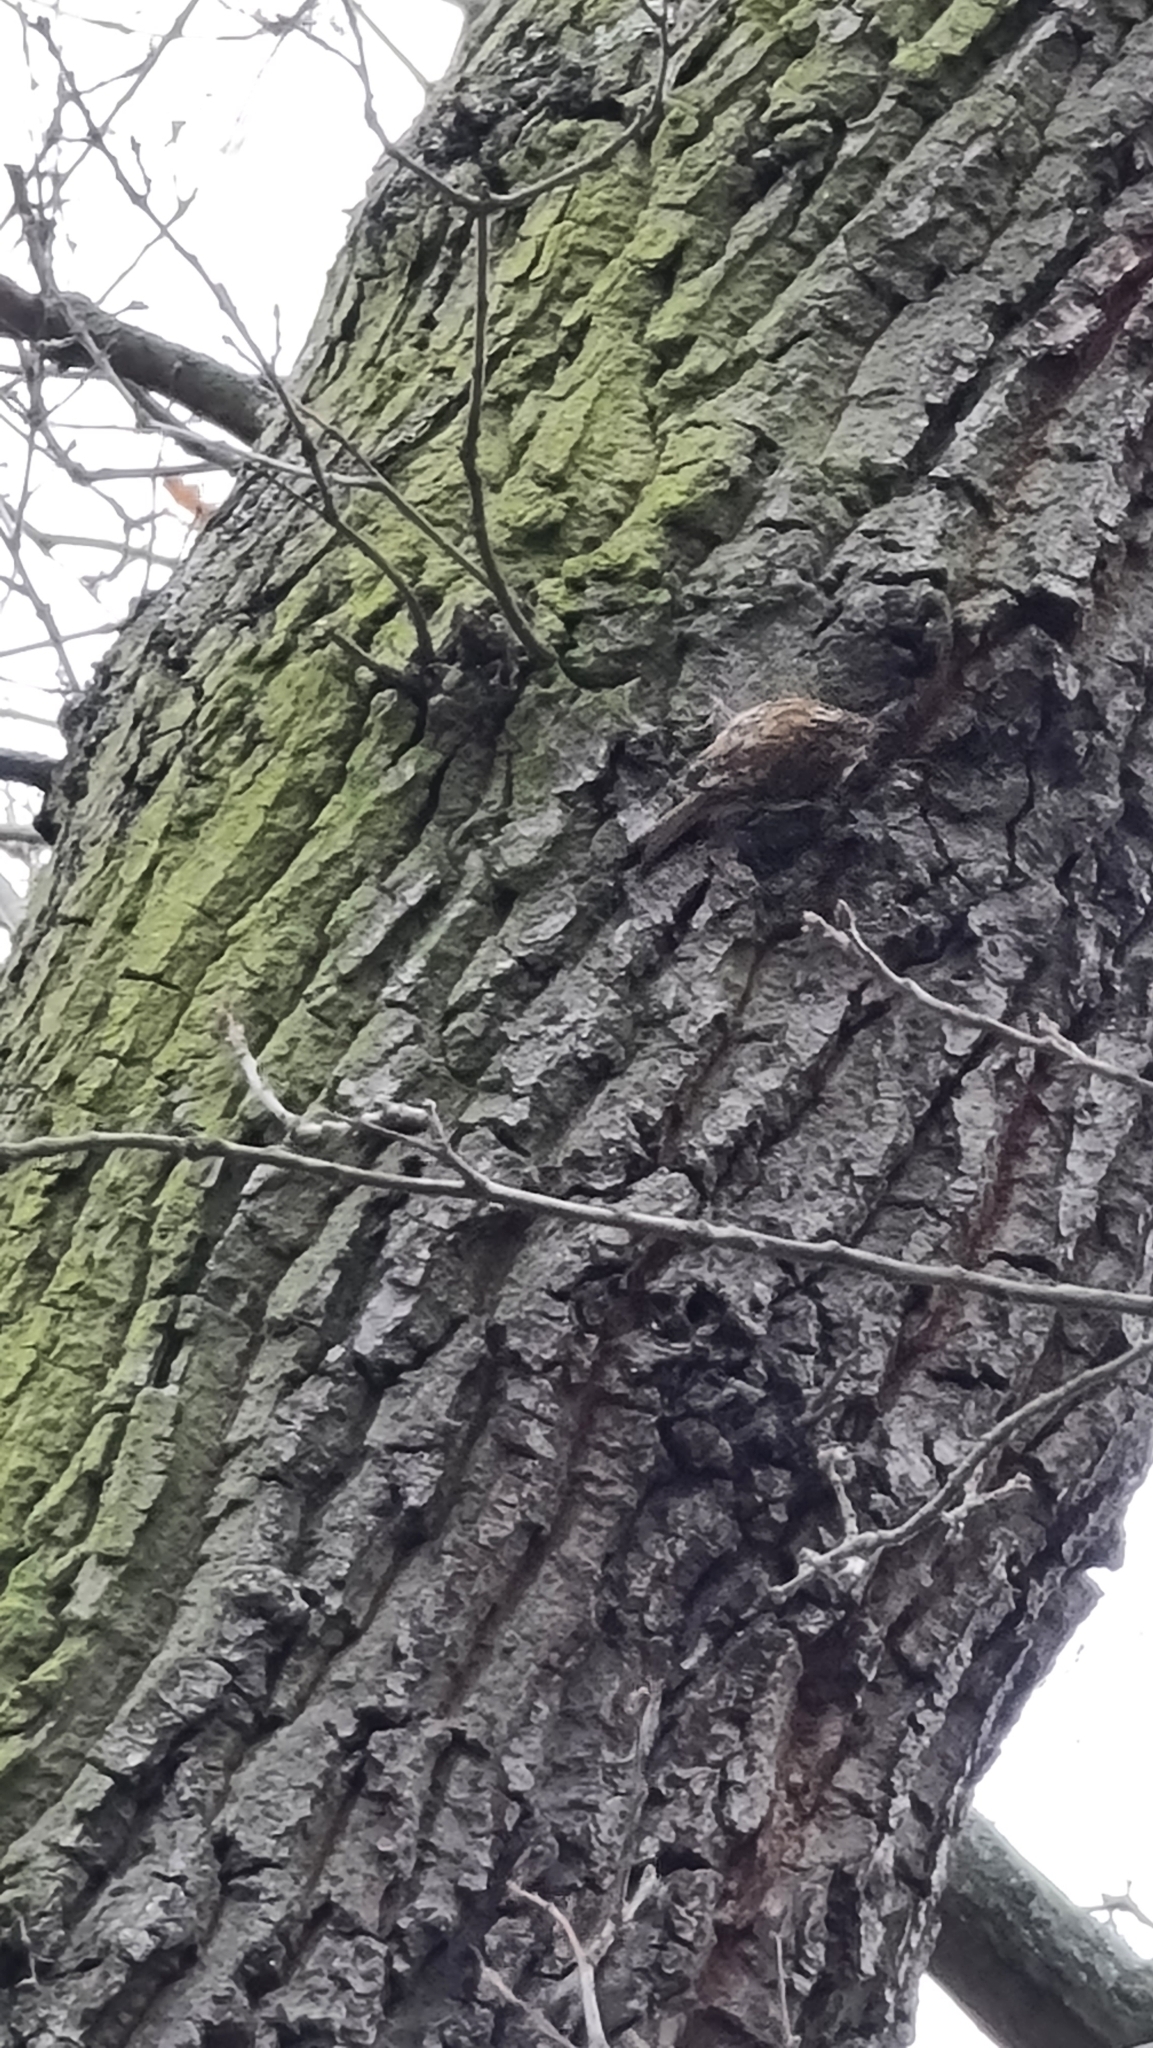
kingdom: Animalia
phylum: Chordata
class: Aves
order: Passeriformes
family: Certhiidae
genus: Certhia
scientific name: Certhia familiaris
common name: Eurasian treecreeper
